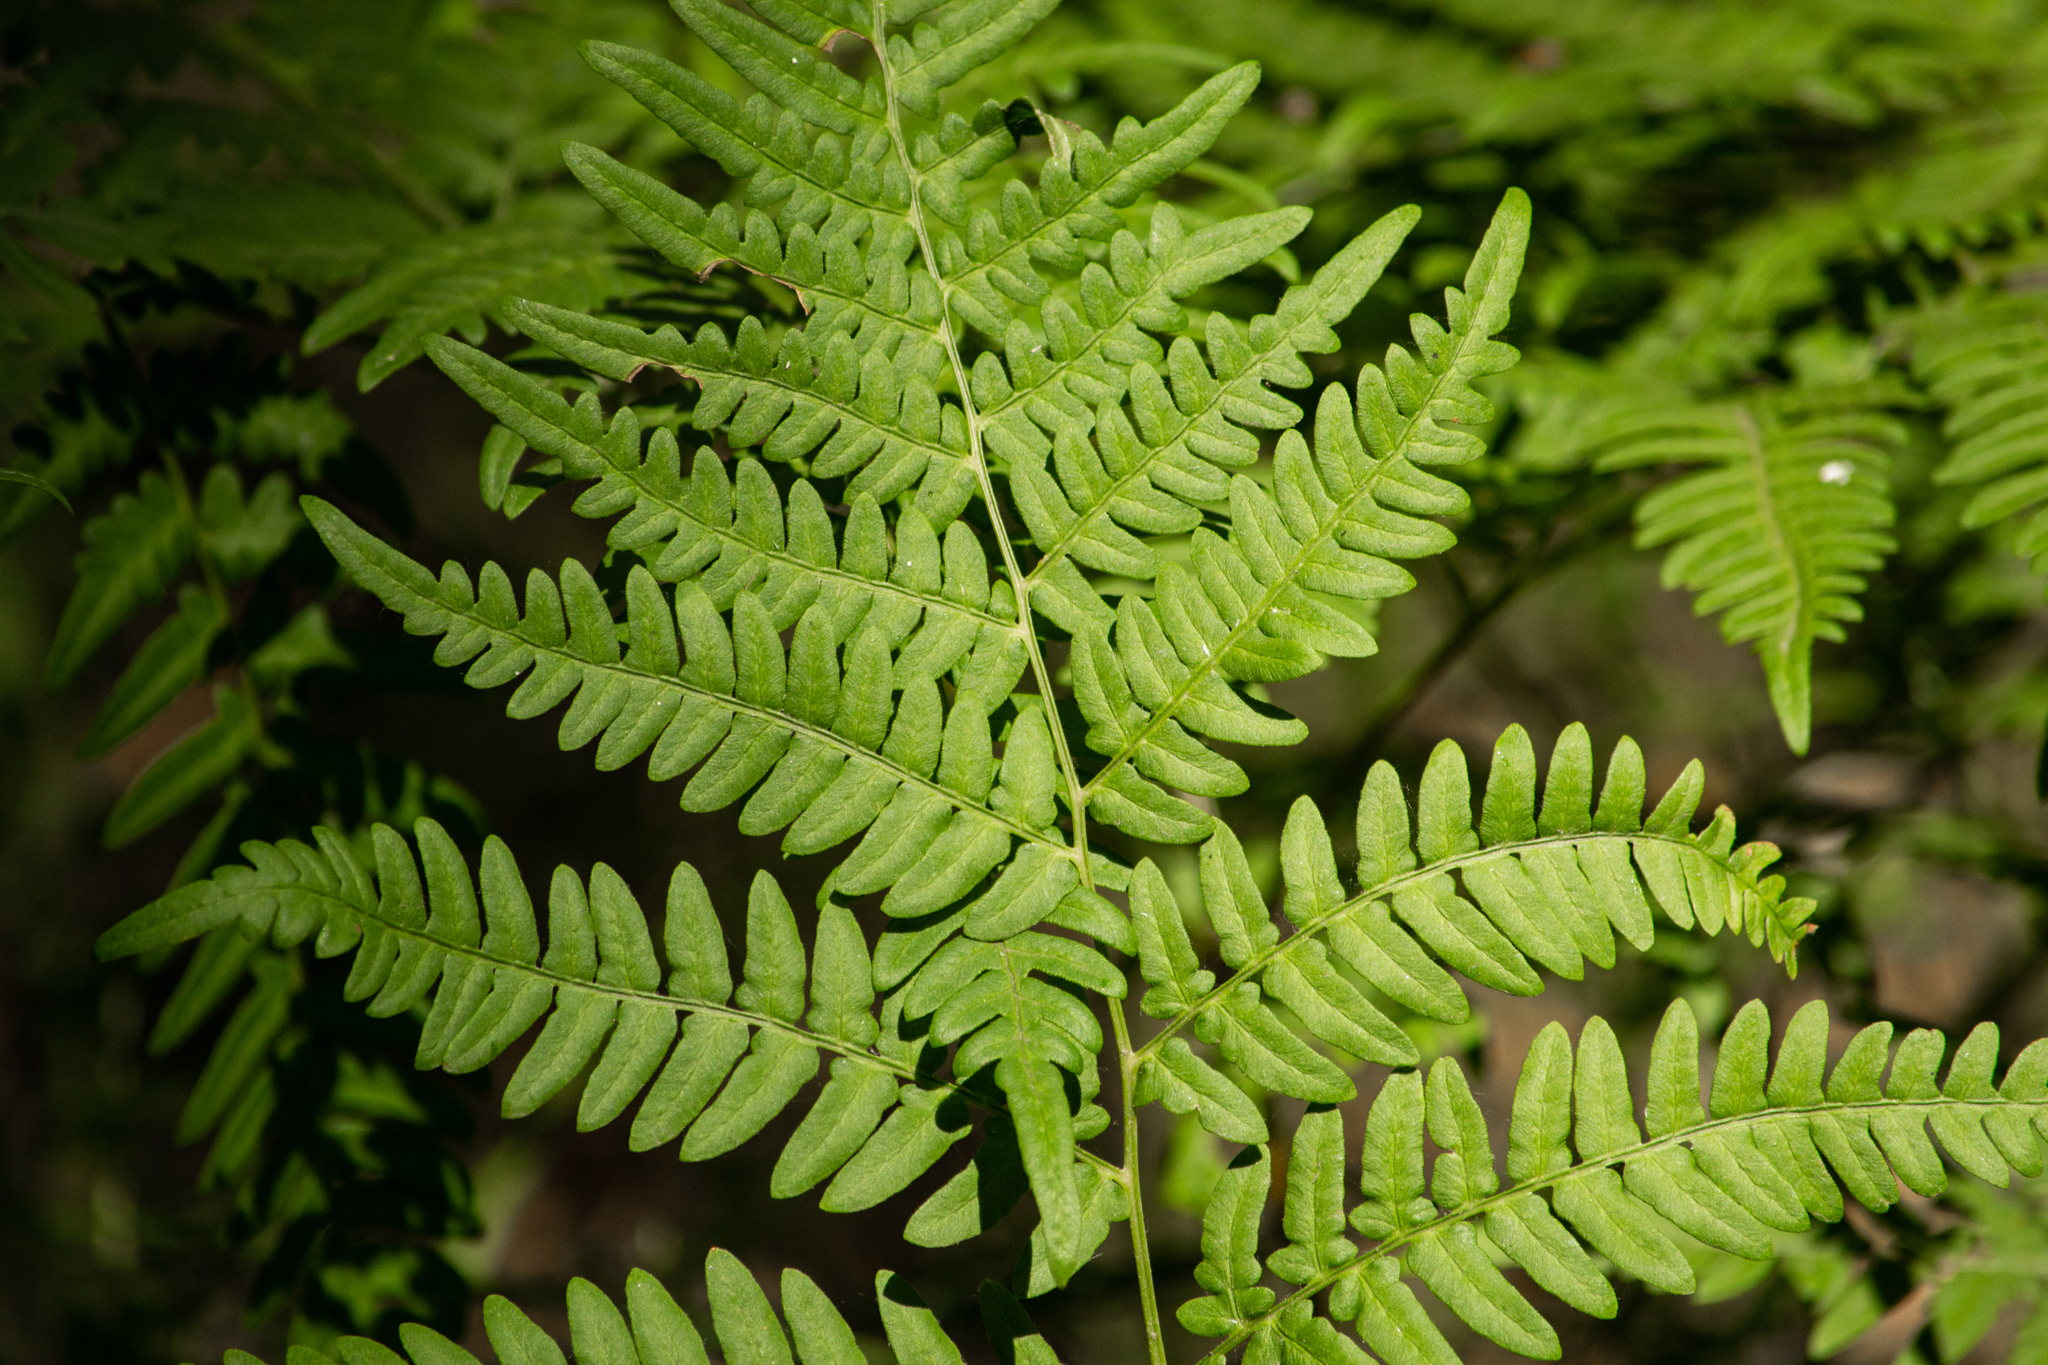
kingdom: Plantae
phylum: Tracheophyta
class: Polypodiopsida
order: Polypodiales
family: Dennstaedtiaceae
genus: Pteridium
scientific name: Pteridium aquilinum
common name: Bracken
